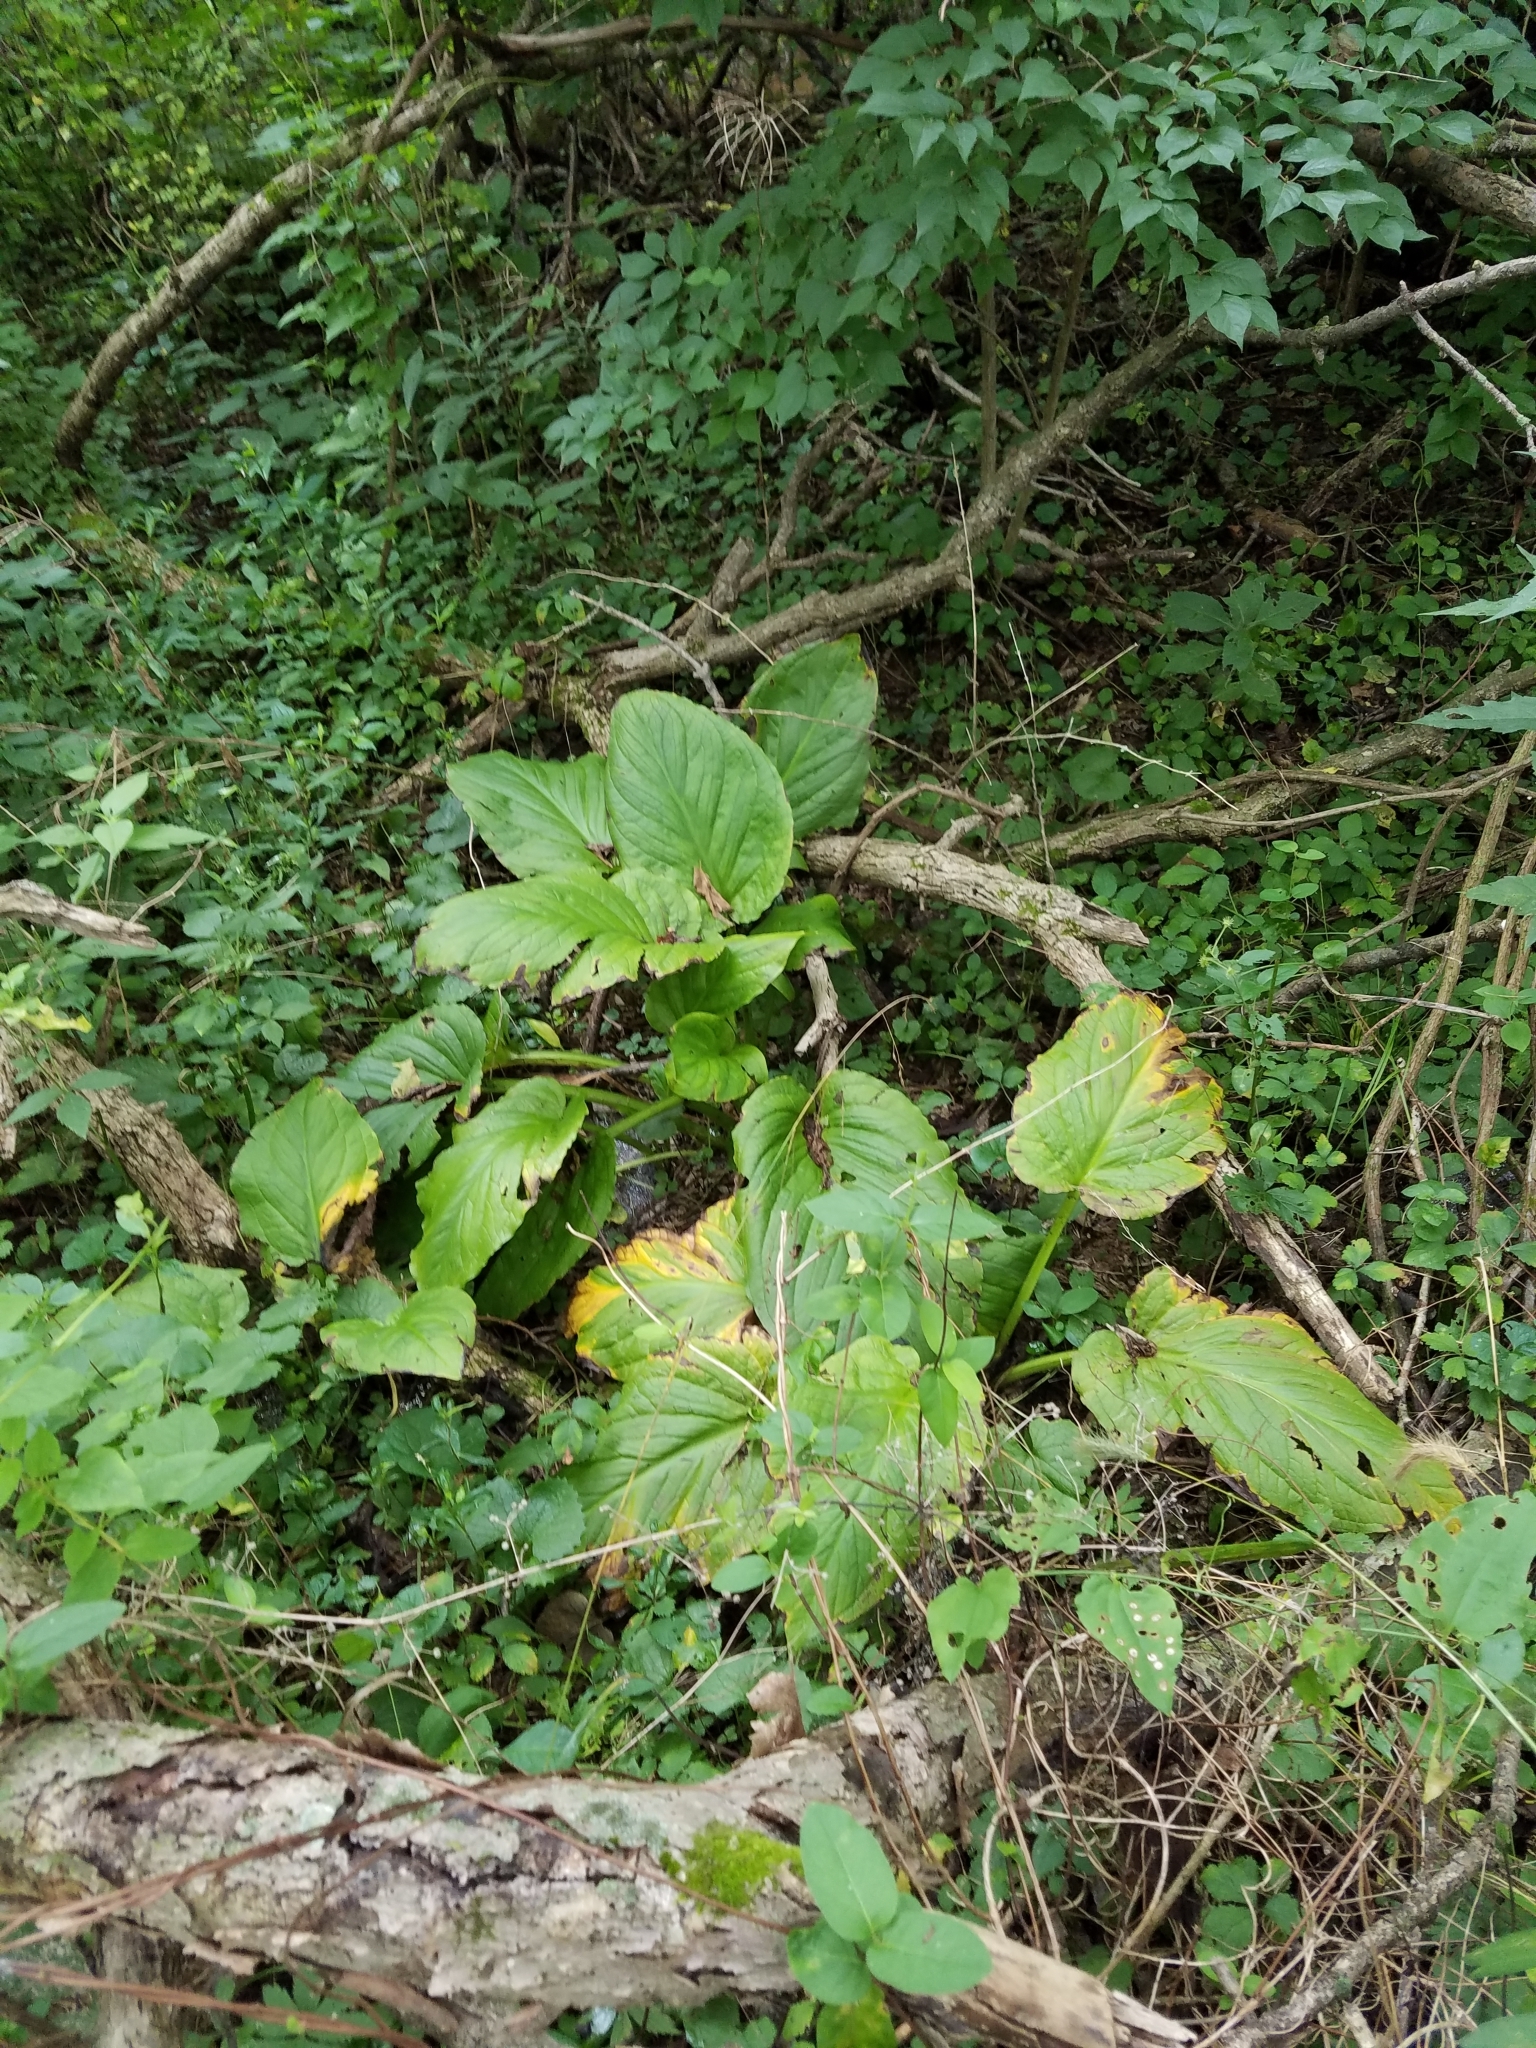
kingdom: Plantae
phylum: Tracheophyta
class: Liliopsida
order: Alismatales
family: Araceae
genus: Symplocarpus
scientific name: Symplocarpus foetidus
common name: Eastern skunk cabbage
